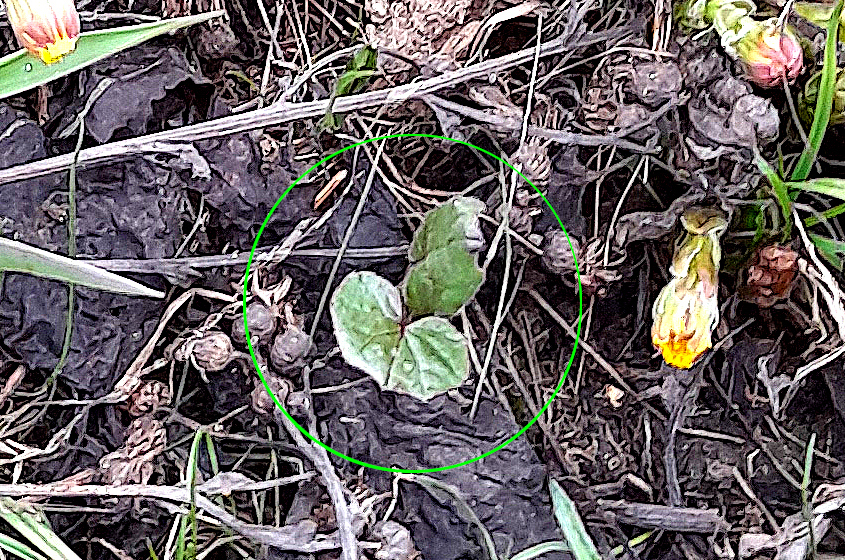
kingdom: Plantae
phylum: Tracheophyta
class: Magnoliopsida
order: Asterales
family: Asteraceae
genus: Tussilago
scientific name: Tussilago farfara
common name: Coltsfoot
